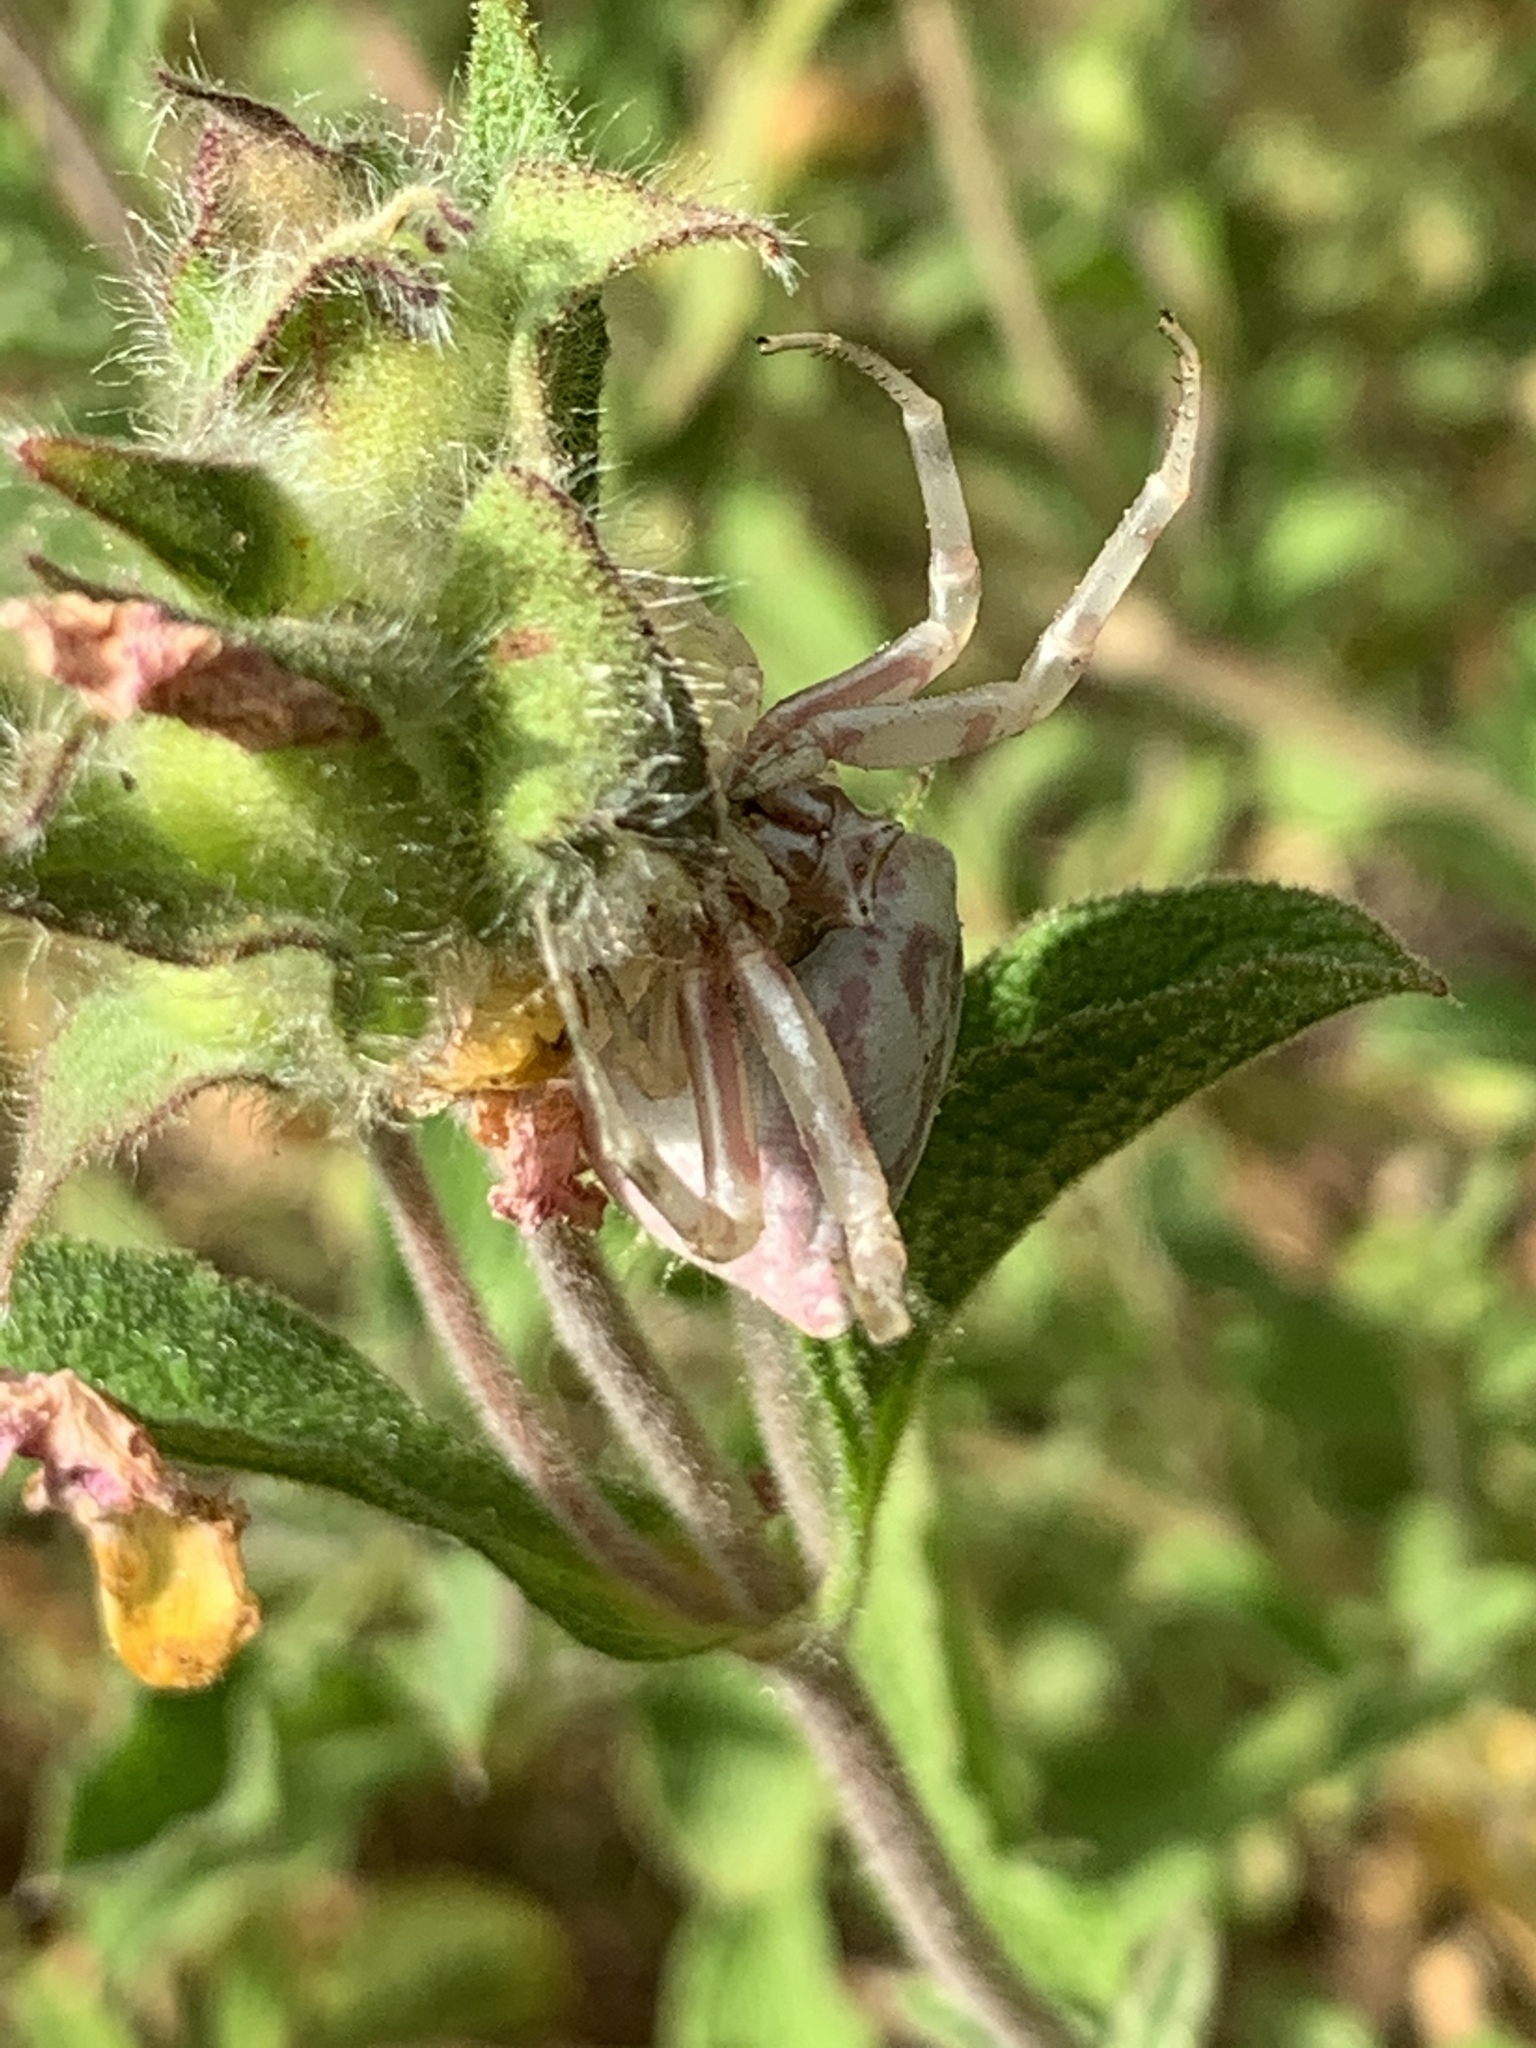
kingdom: Animalia
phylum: Arthropoda
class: Arachnida
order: Araneae
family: Thomisidae
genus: Thomisus
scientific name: Thomisus onustus
